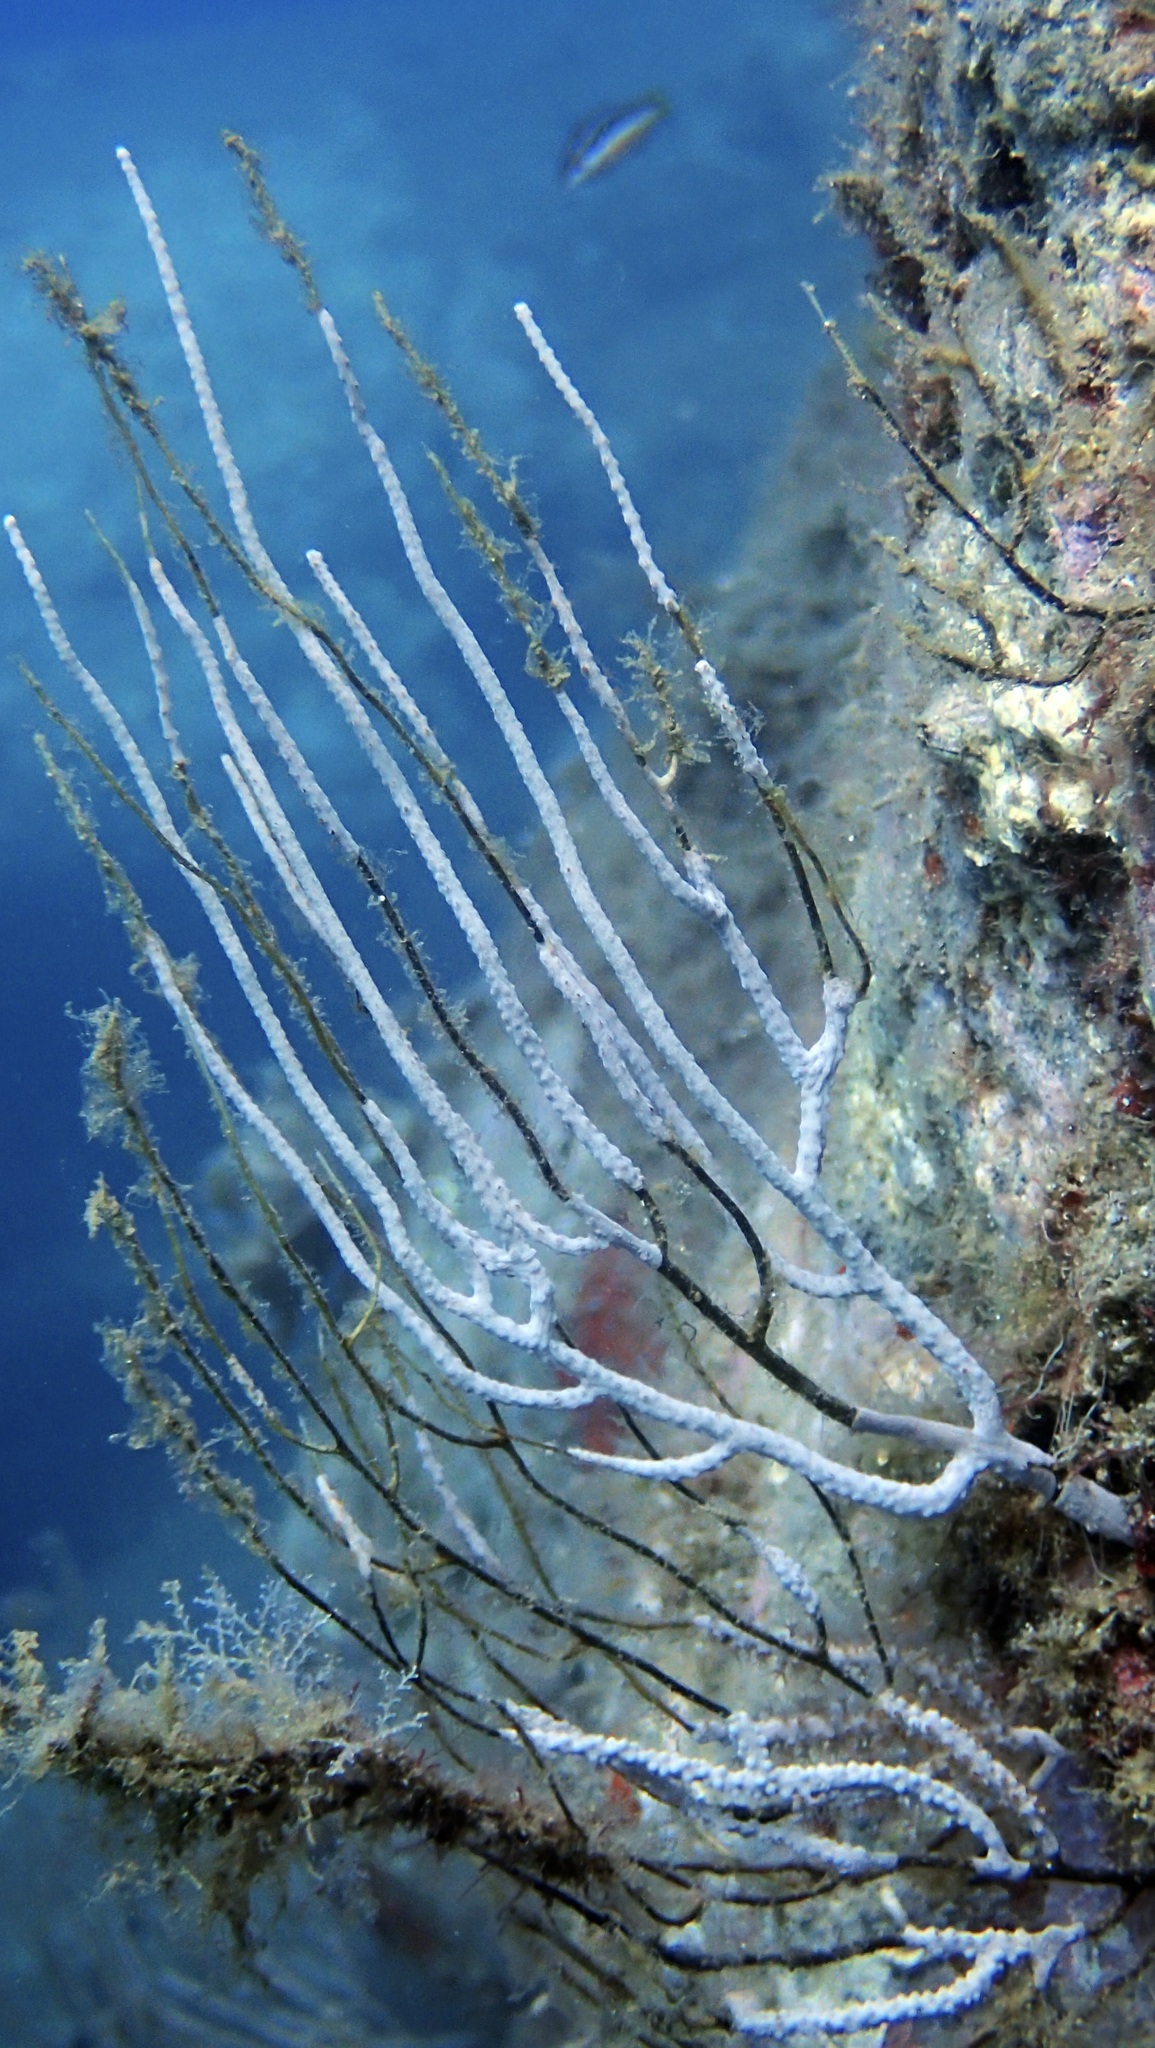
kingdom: Animalia
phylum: Cnidaria
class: Anthozoa
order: Malacalcyonacea
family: Eunicellidae
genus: Eunicella
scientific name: Eunicella singularis
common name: White horny coral
